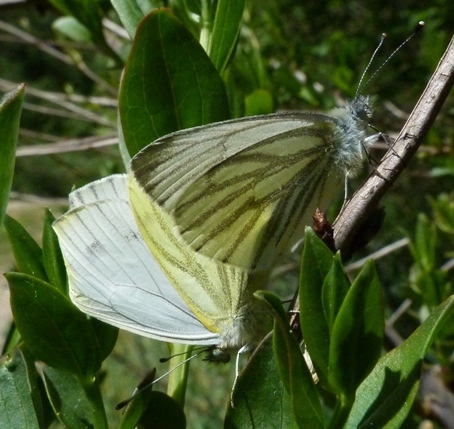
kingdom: Animalia
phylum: Arthropoda
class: Insecta
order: Lepidoptera
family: Pieridae
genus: Pieris
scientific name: Pieris napi
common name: Green-veined white
